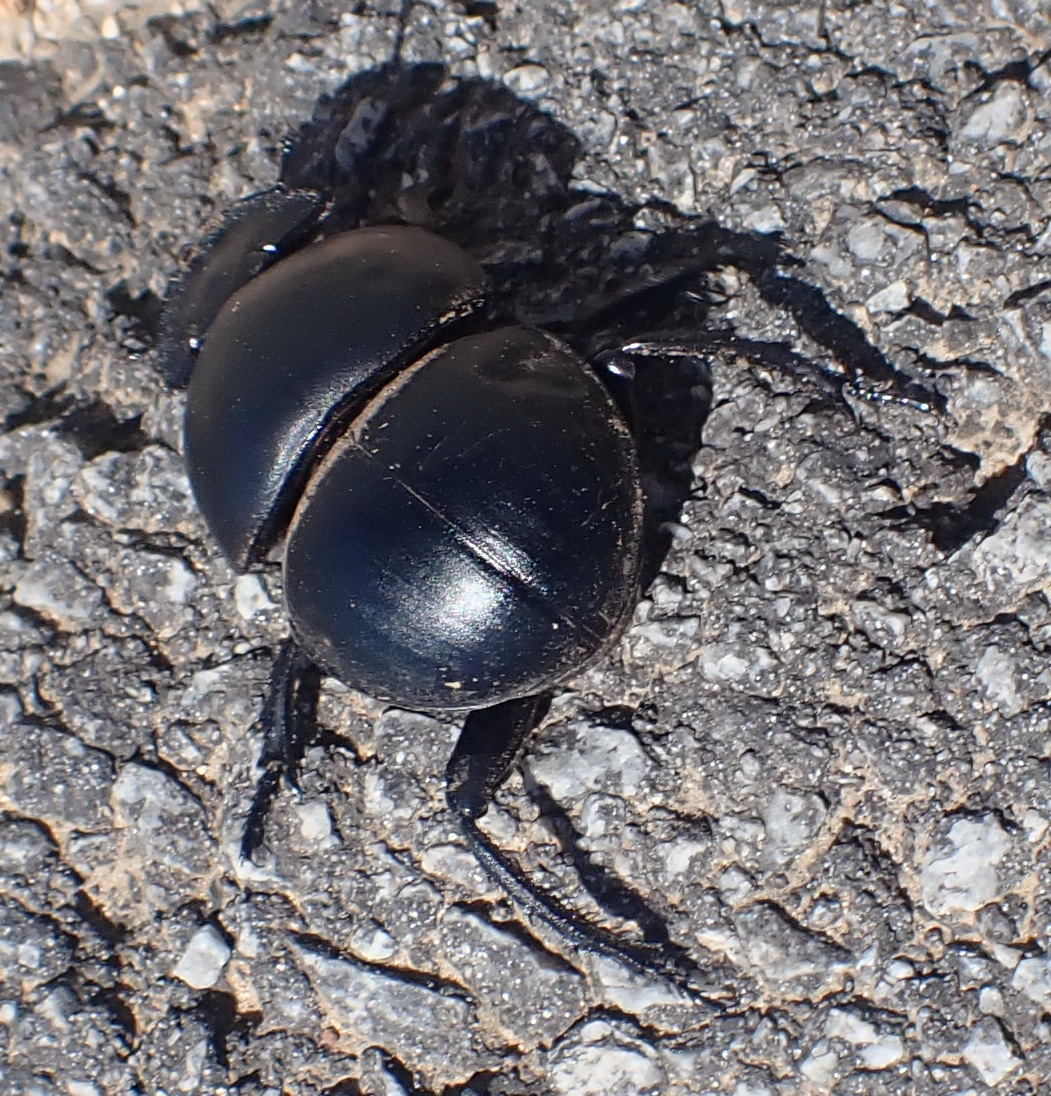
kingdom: Animalia
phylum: Arthropoda
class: Insecta
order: Coleoptera
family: Scarabaeidae
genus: Circellium
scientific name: Circellium bacchus
